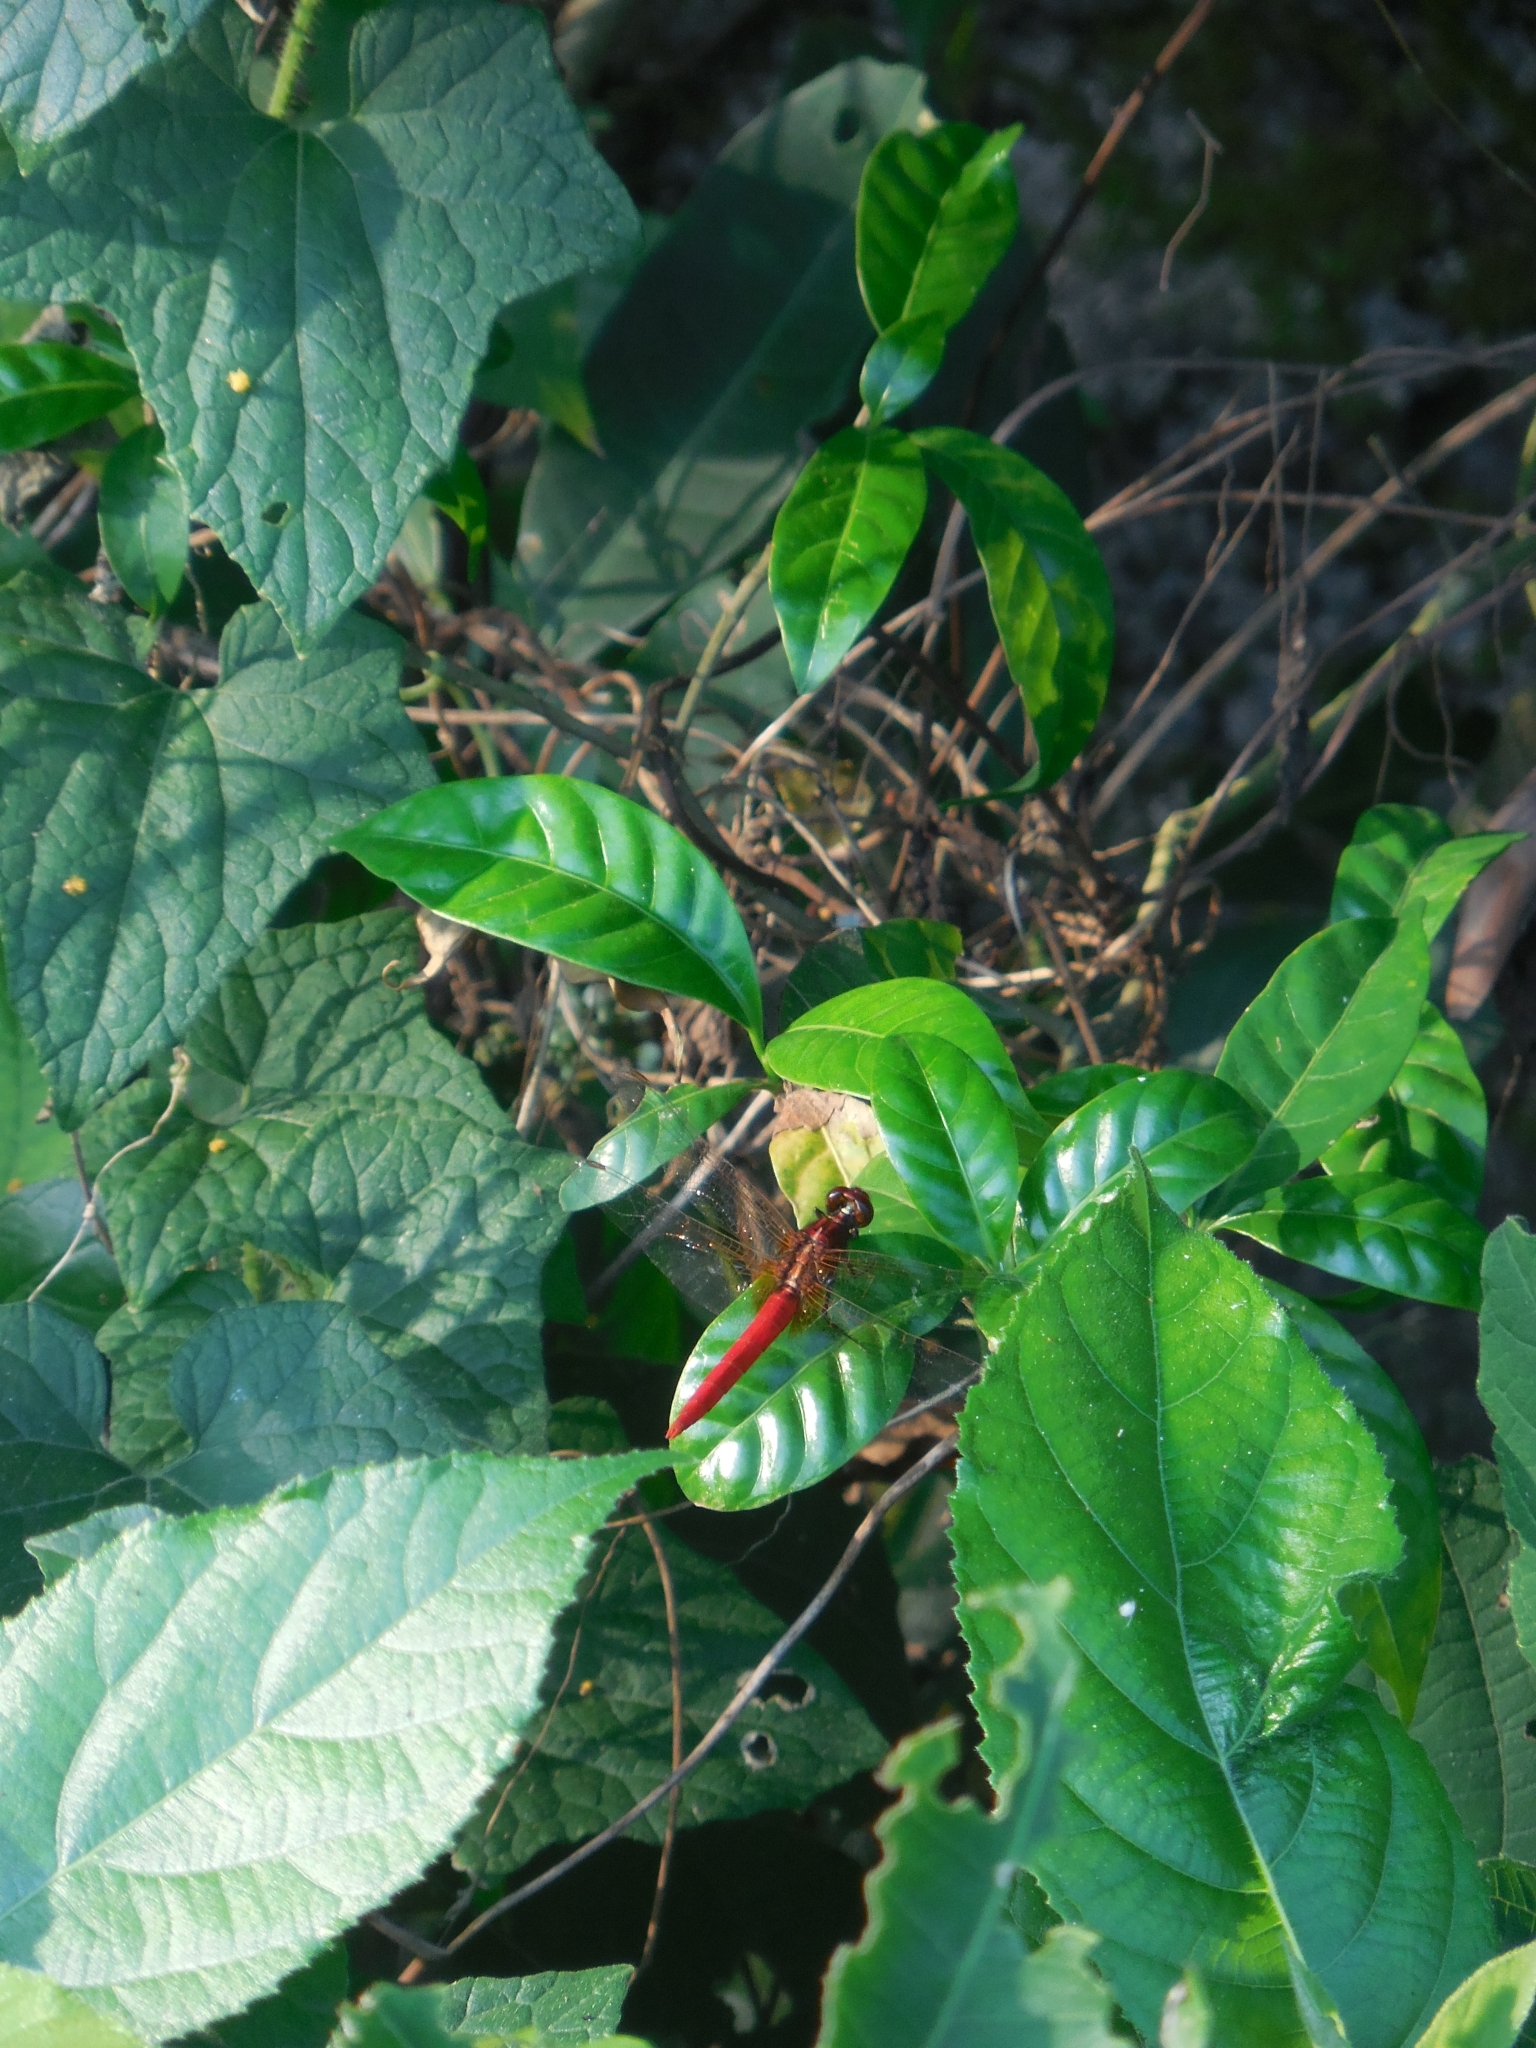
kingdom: Animalia
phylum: Arthropoda
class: Insecta
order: Odonata
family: Libellulidae
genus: Rhodothemis
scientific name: Rhodothemis rufa
